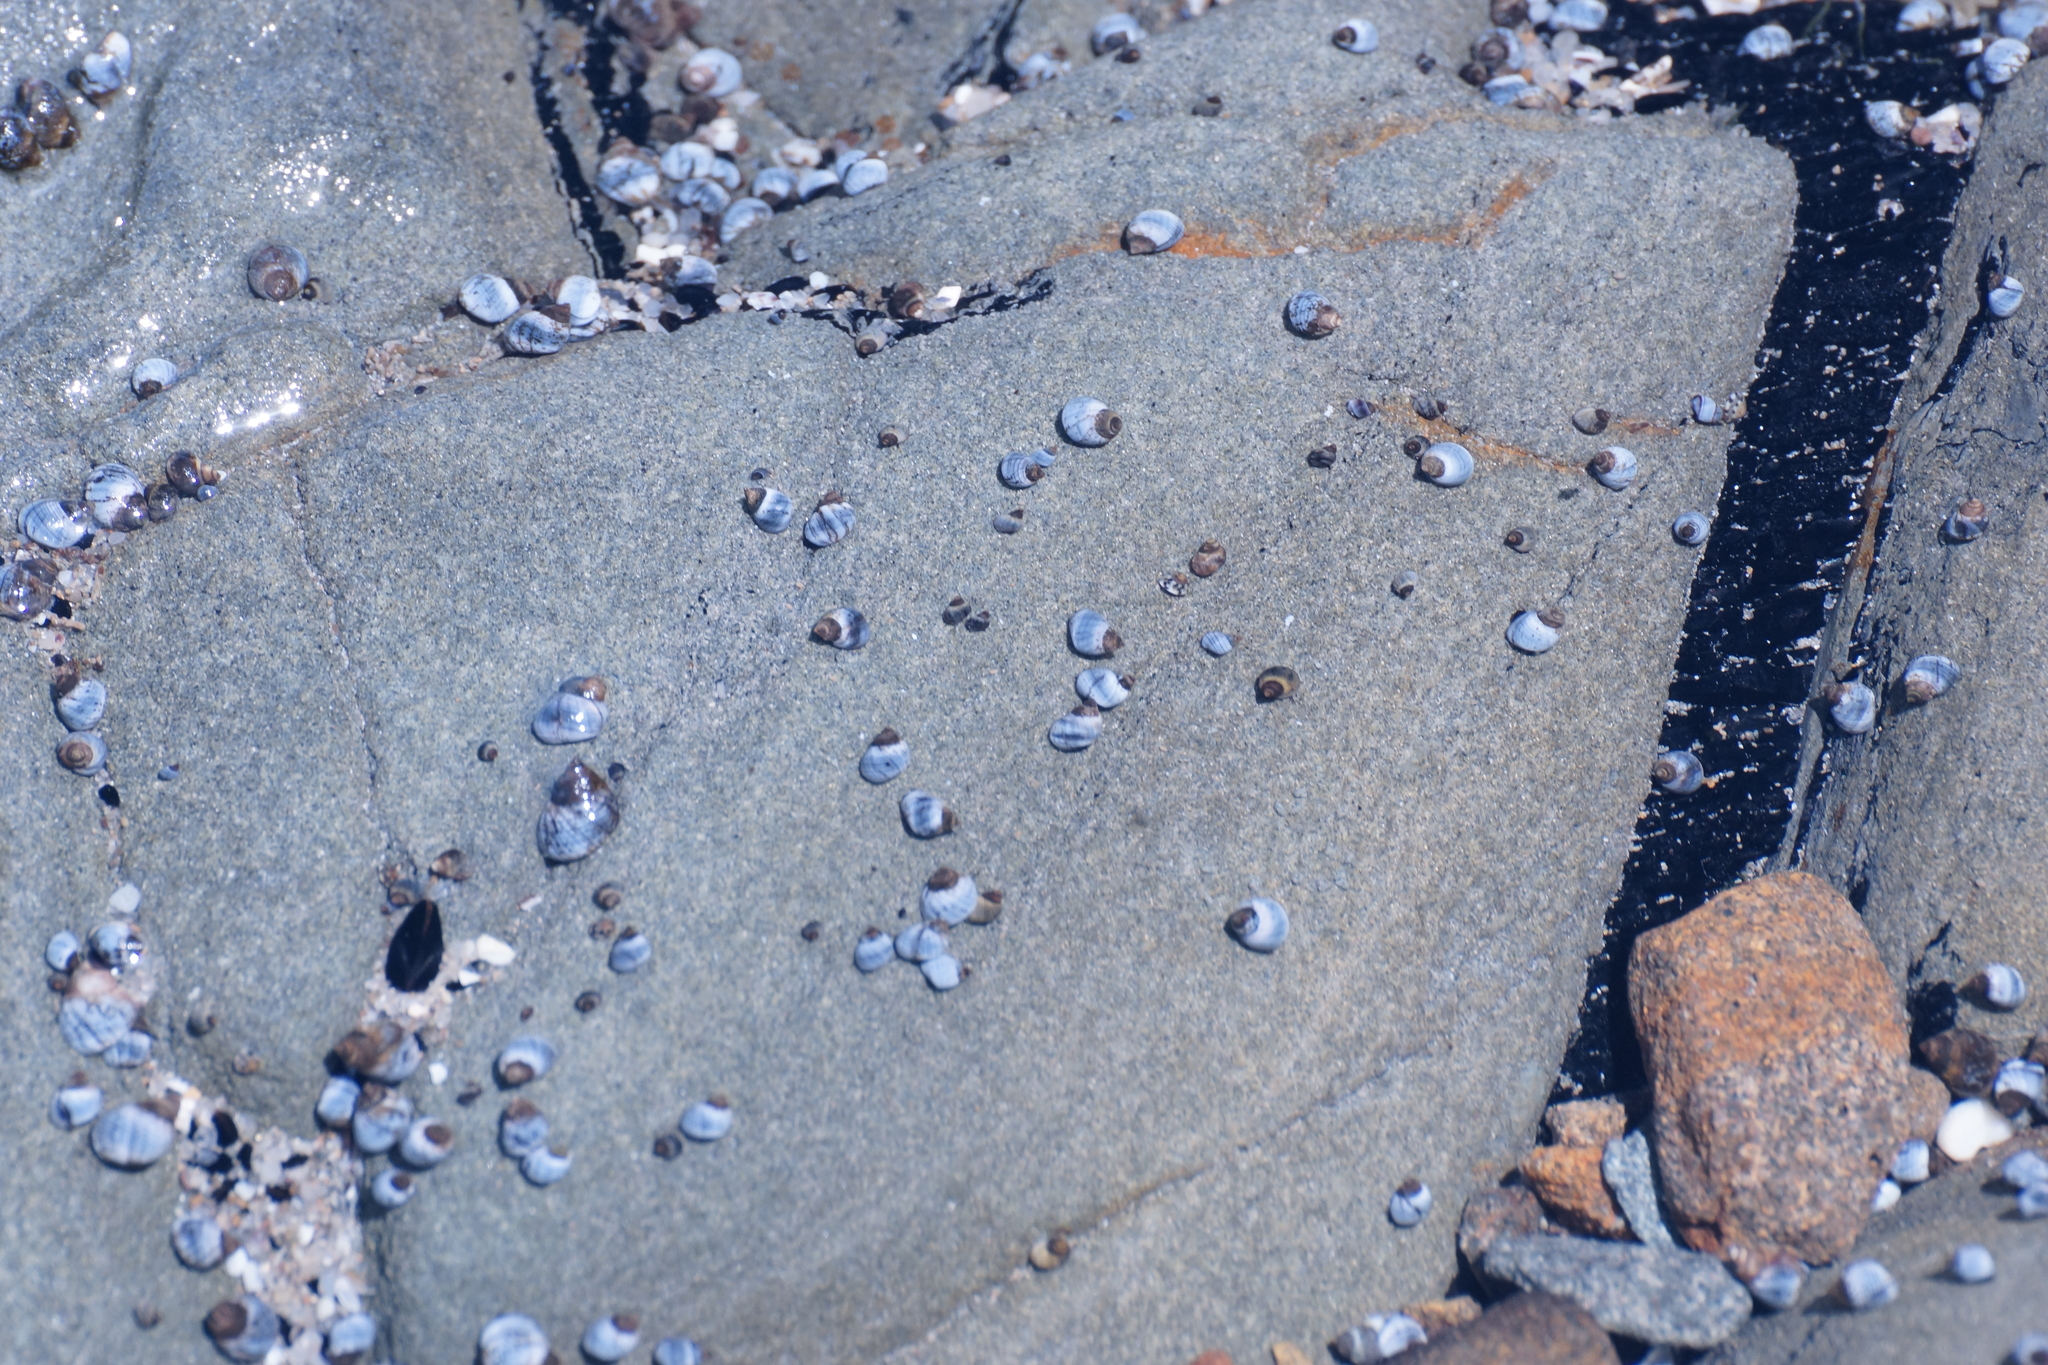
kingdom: Animalia
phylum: Mollusca
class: Gastropoda
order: Littorinimorpha
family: Littorinidae
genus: Austrolittorina
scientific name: Austrolittorina unifasciata
